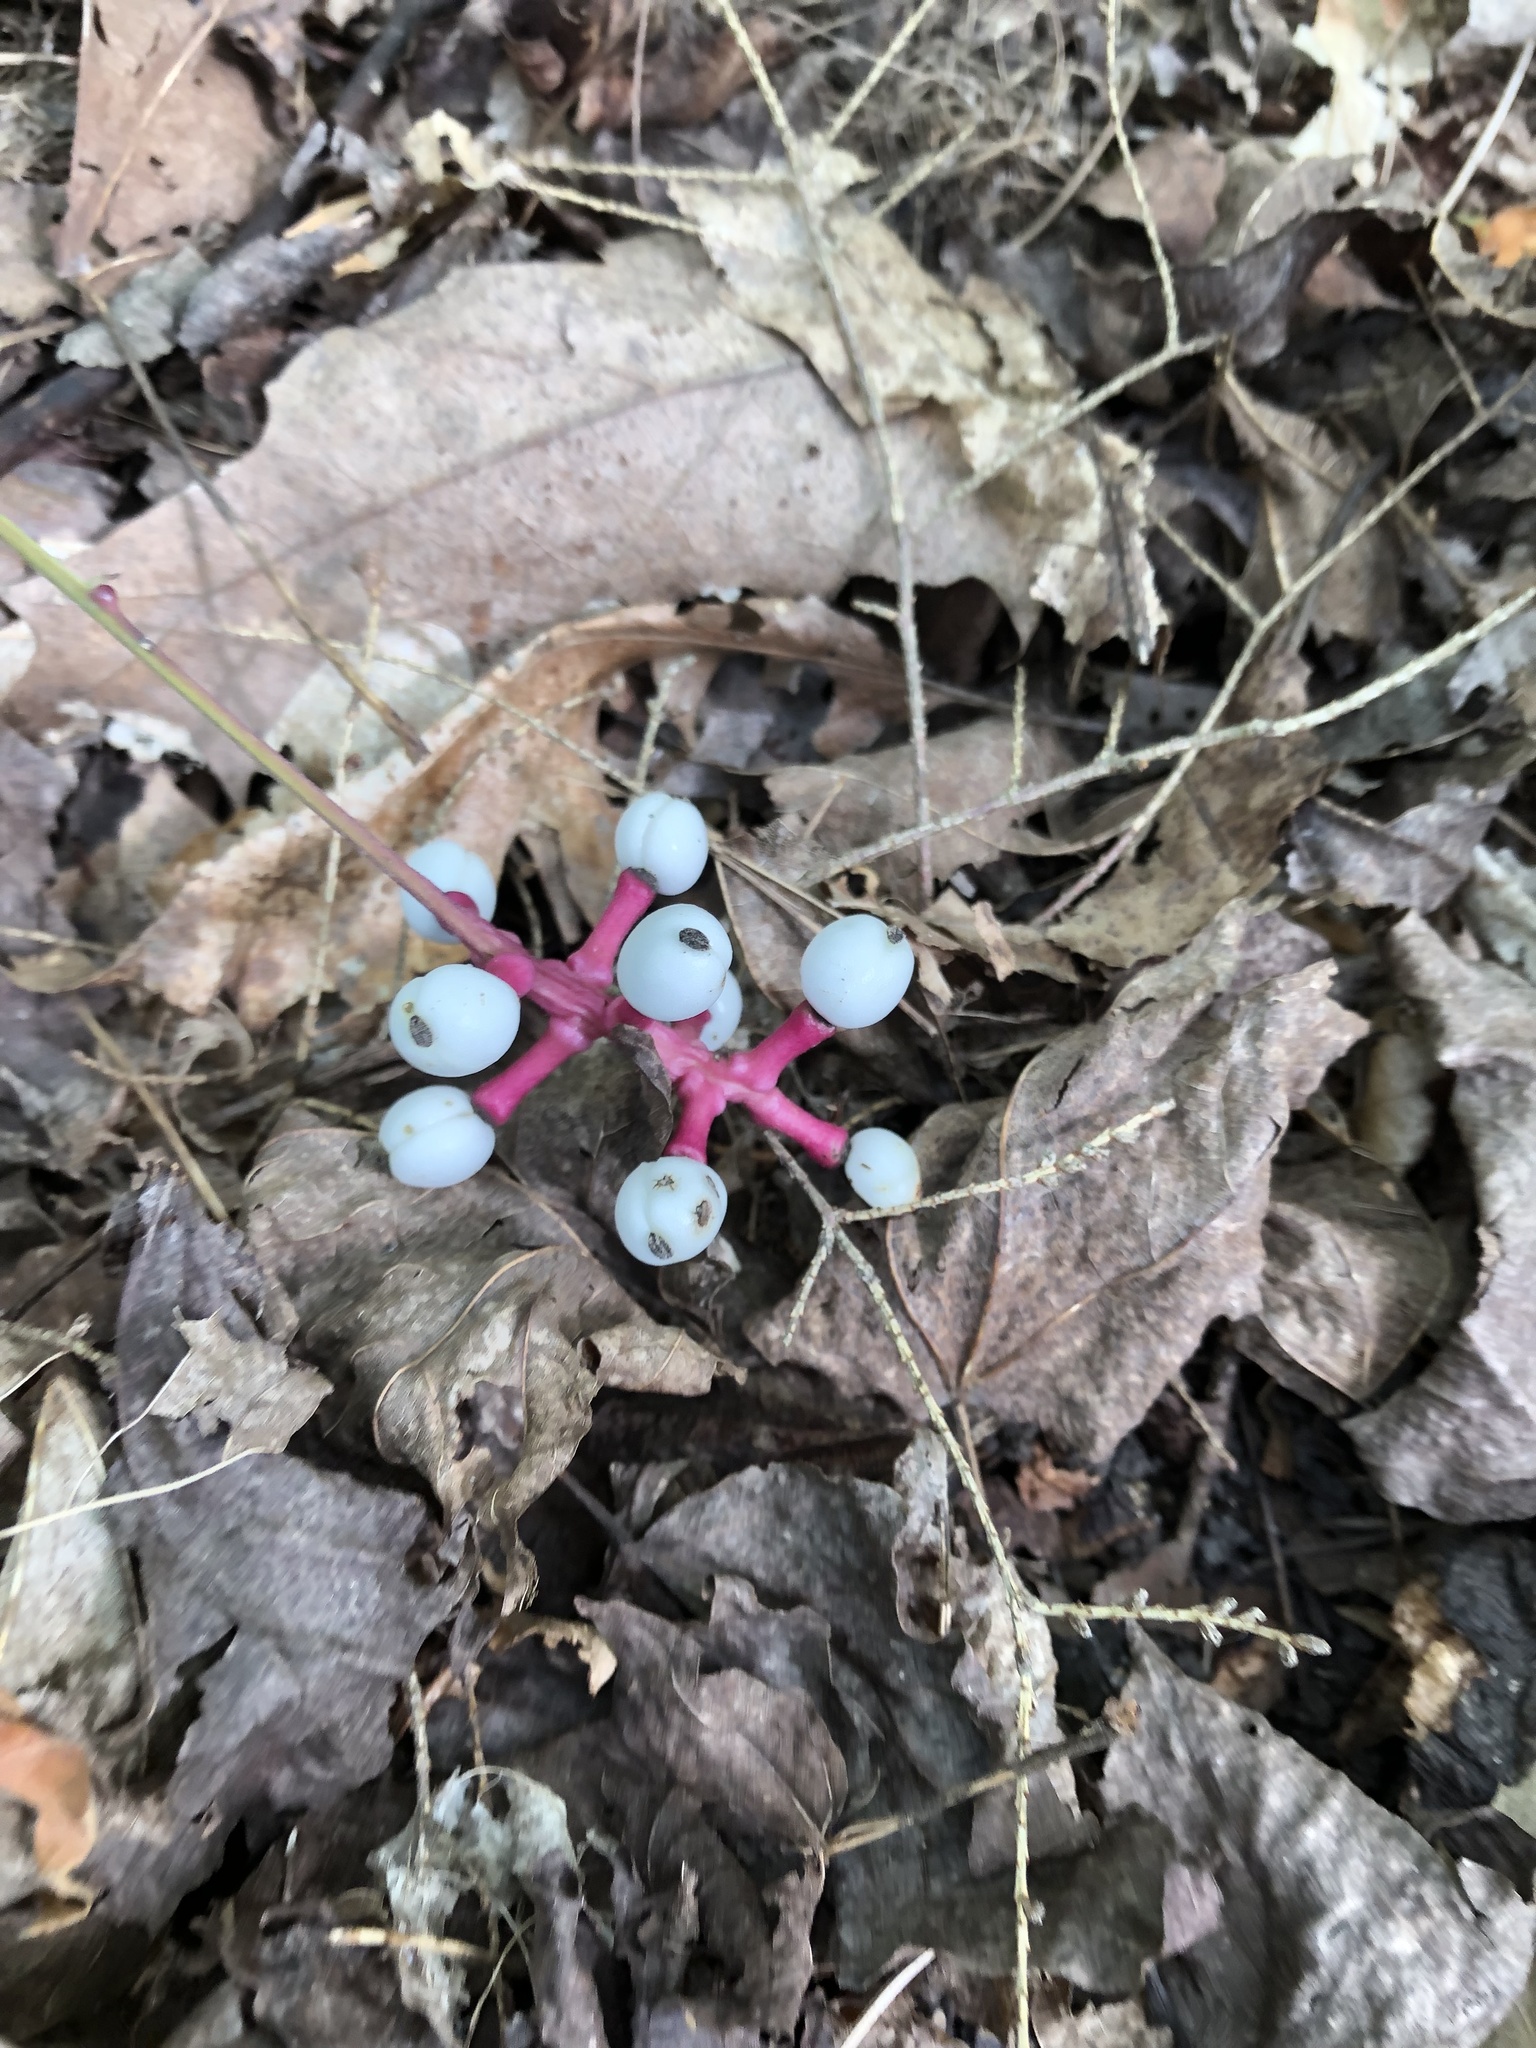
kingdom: Plantae
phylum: Tracheophyta
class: Magnoliopsida
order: Ranunculales
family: Ranunculaceae
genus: Actaea
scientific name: Actaea pachypoda
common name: Doll's-eyes
